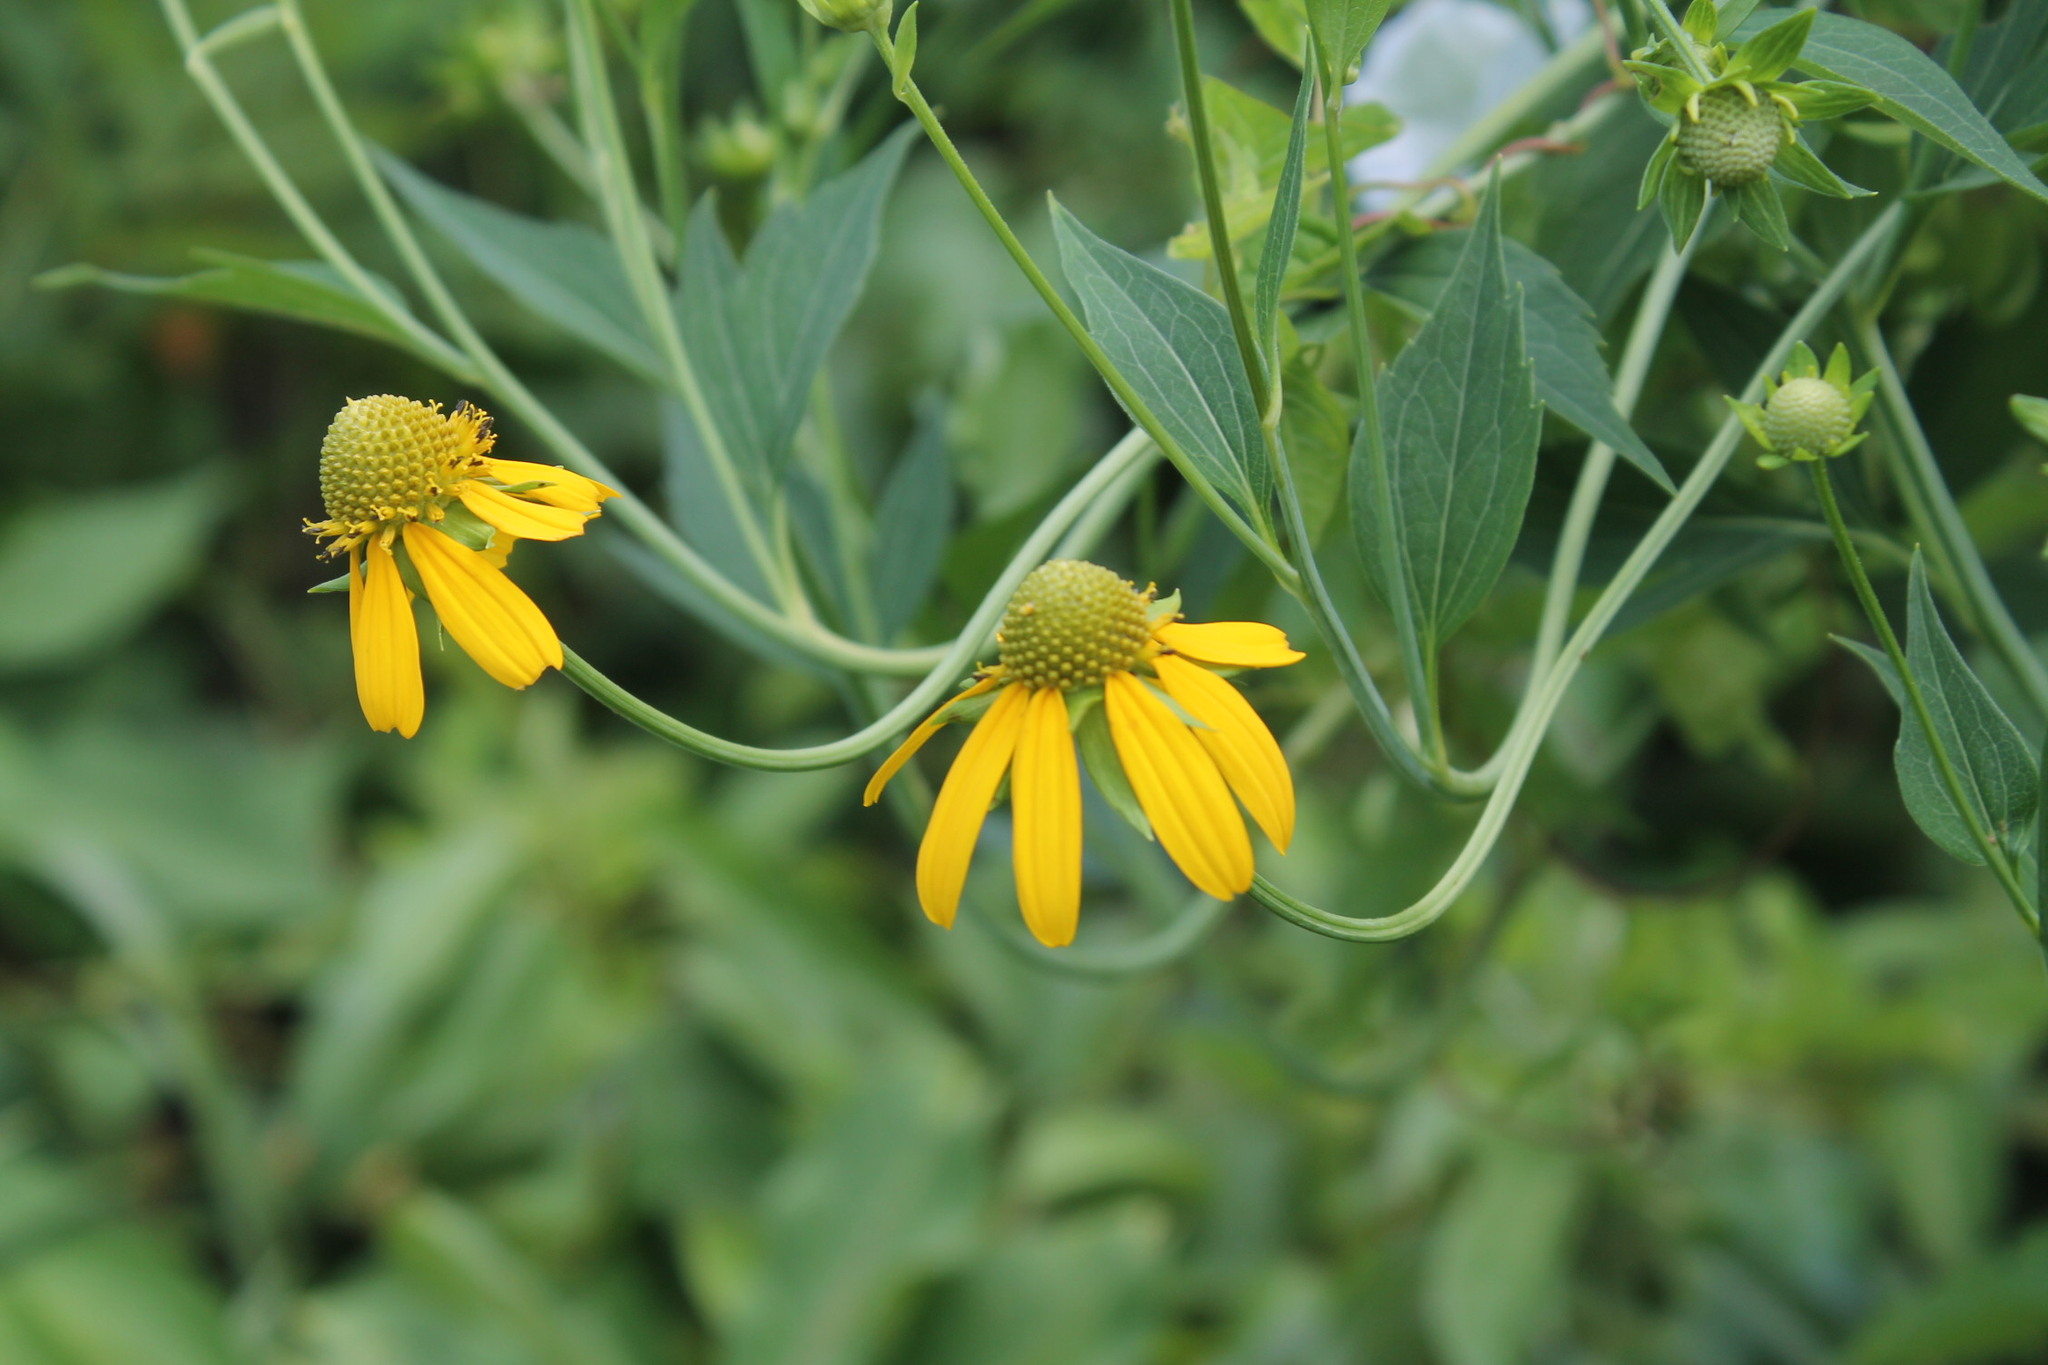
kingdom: Plantae
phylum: Tracheophyta
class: Magnoliopsida
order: Asterales
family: Asteraceae
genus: Rudbeckia
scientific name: Rudbeckia laciniata
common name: Coneflower
